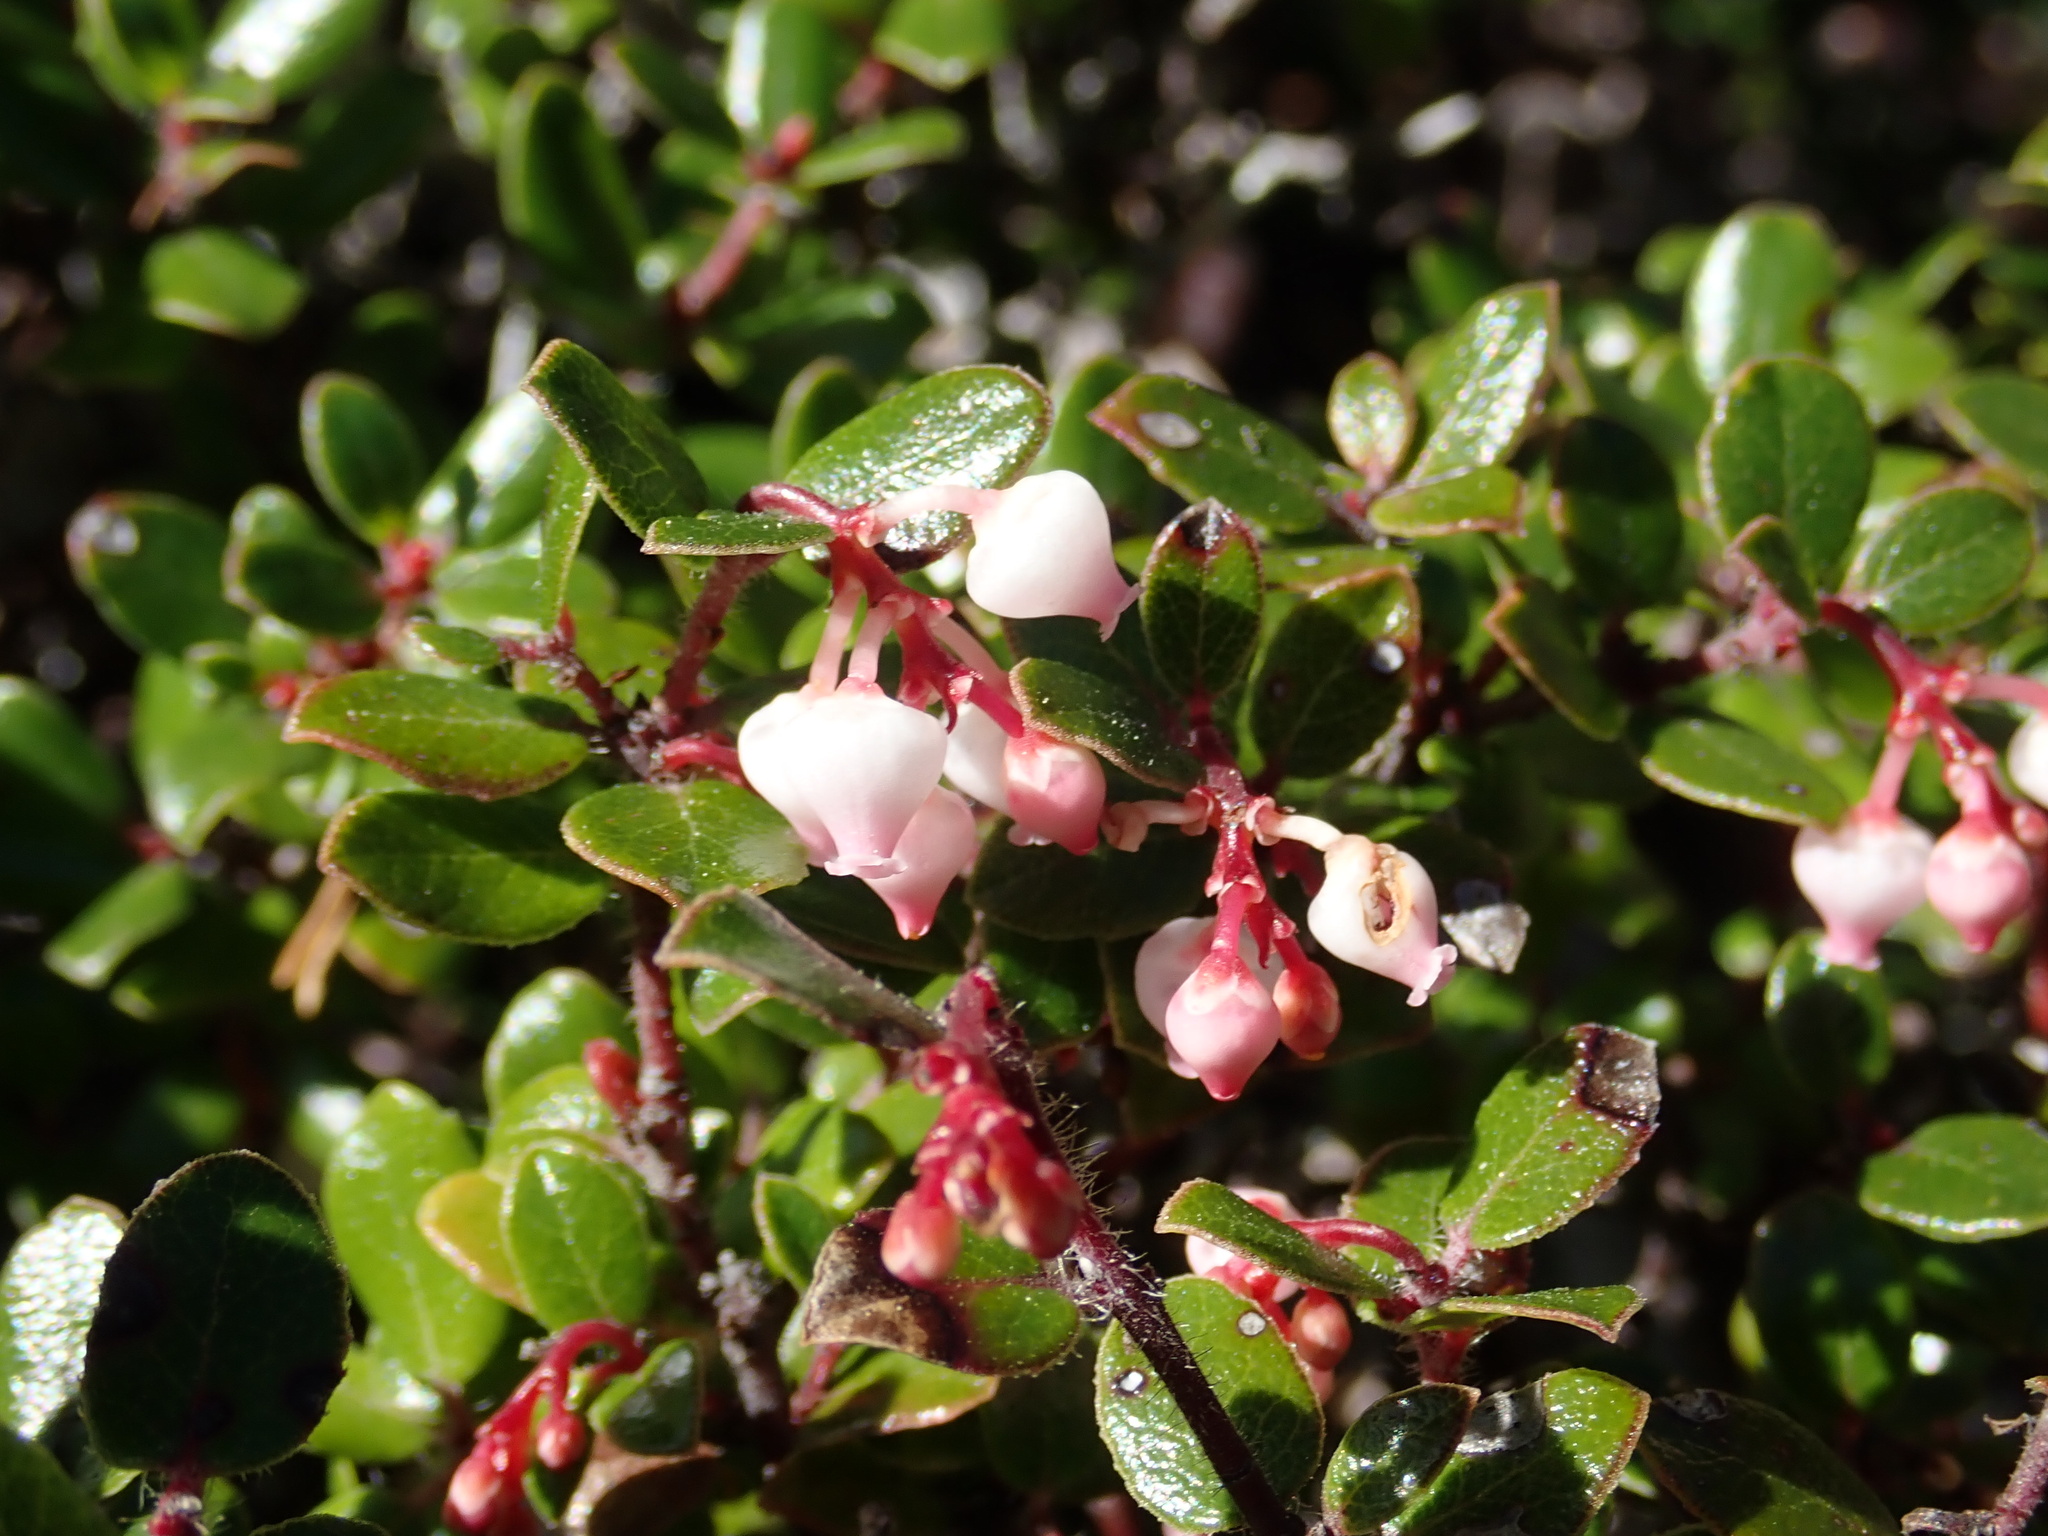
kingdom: Plantae
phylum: Tracheophyta
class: Magnoliopsida
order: Ericales
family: Ericaceae
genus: Arctostaphylos
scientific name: Arctostaphylos nummularia
